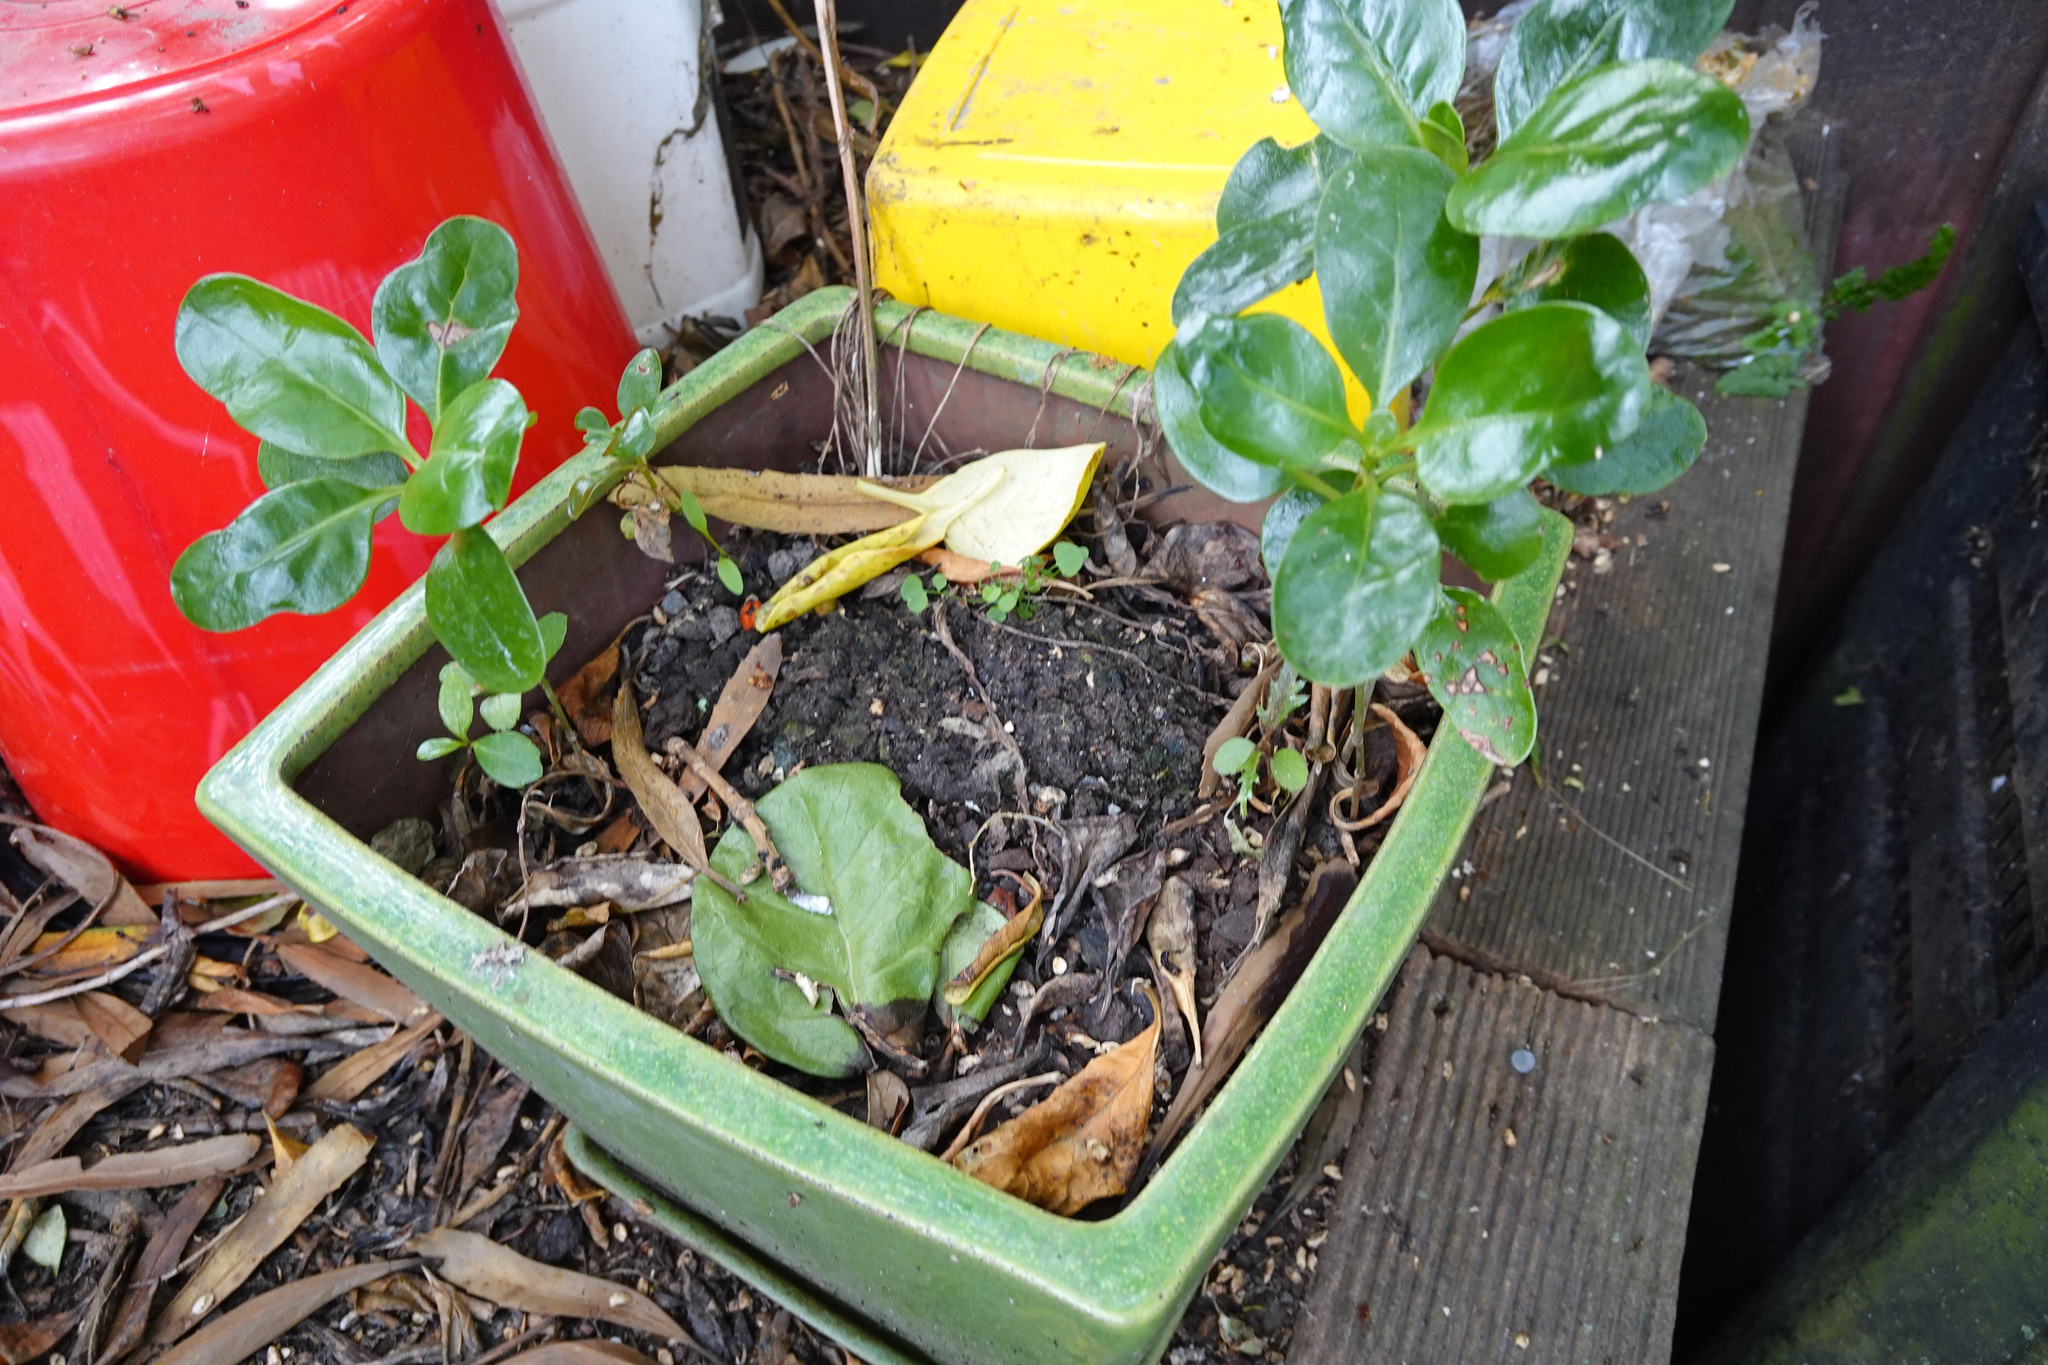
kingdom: Plantae
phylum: Tracheophyta
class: Magnoliopsida
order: Gentianales
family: Rubiaceae
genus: Coprosma
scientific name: Coprosma repens
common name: Tree bedstraw
